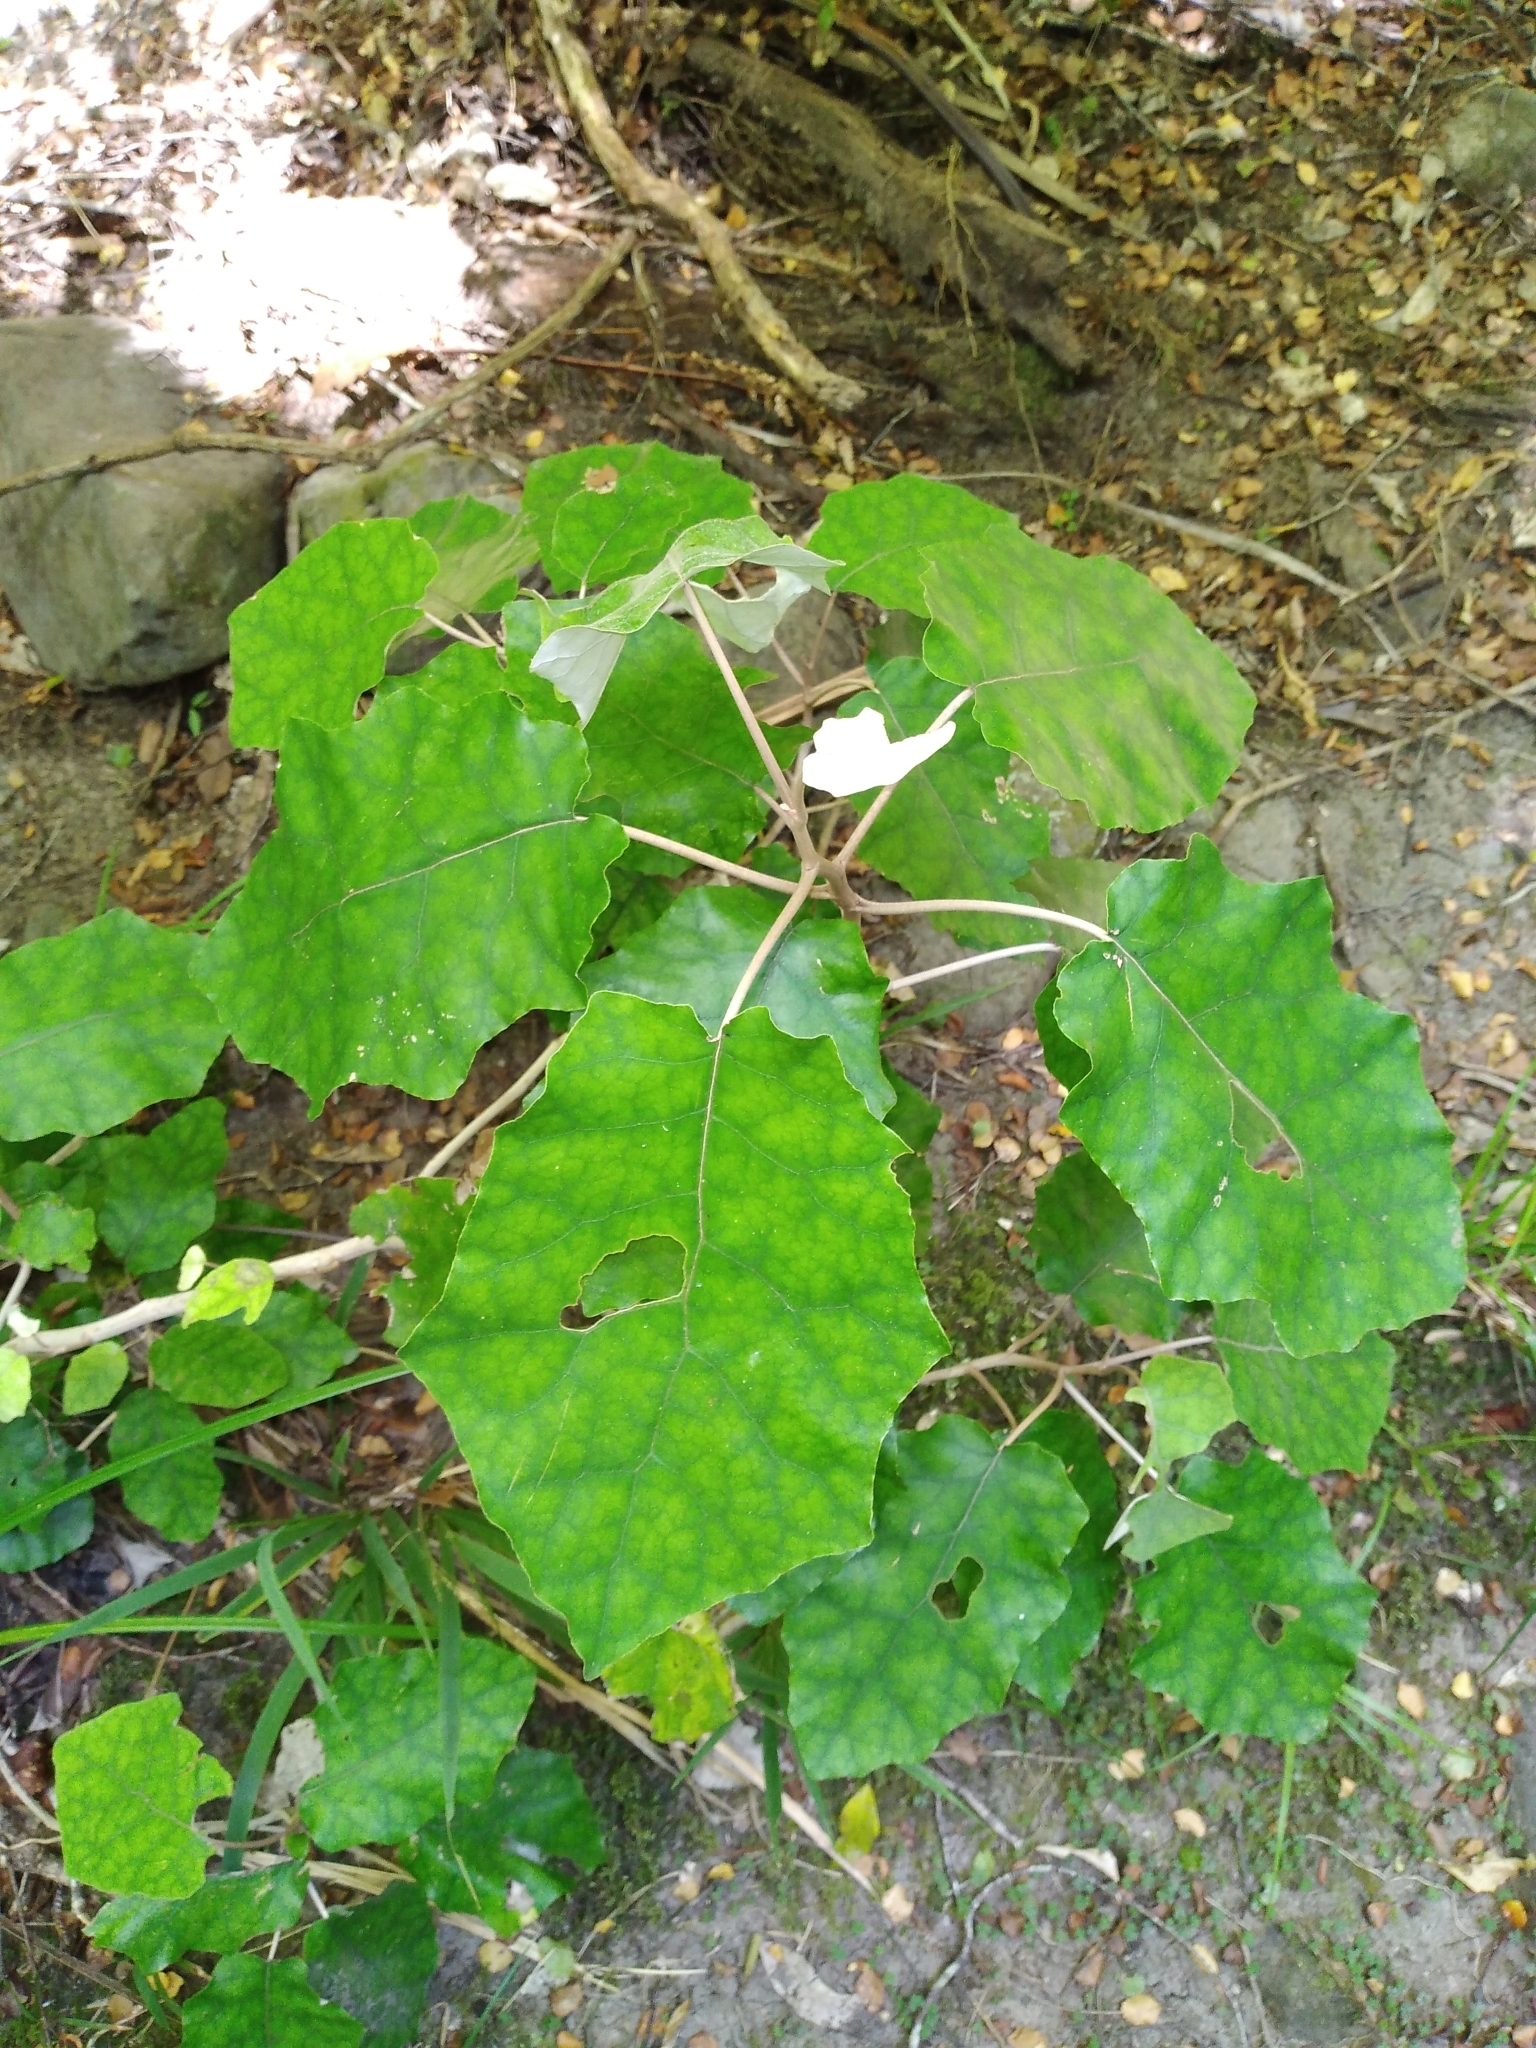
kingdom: Plantae
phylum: Tracheophyta
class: Magnoliopsida
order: Asterales
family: Asteraceae
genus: Brachyglottis
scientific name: Brachyglottis repanda
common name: Hedge ragwort
